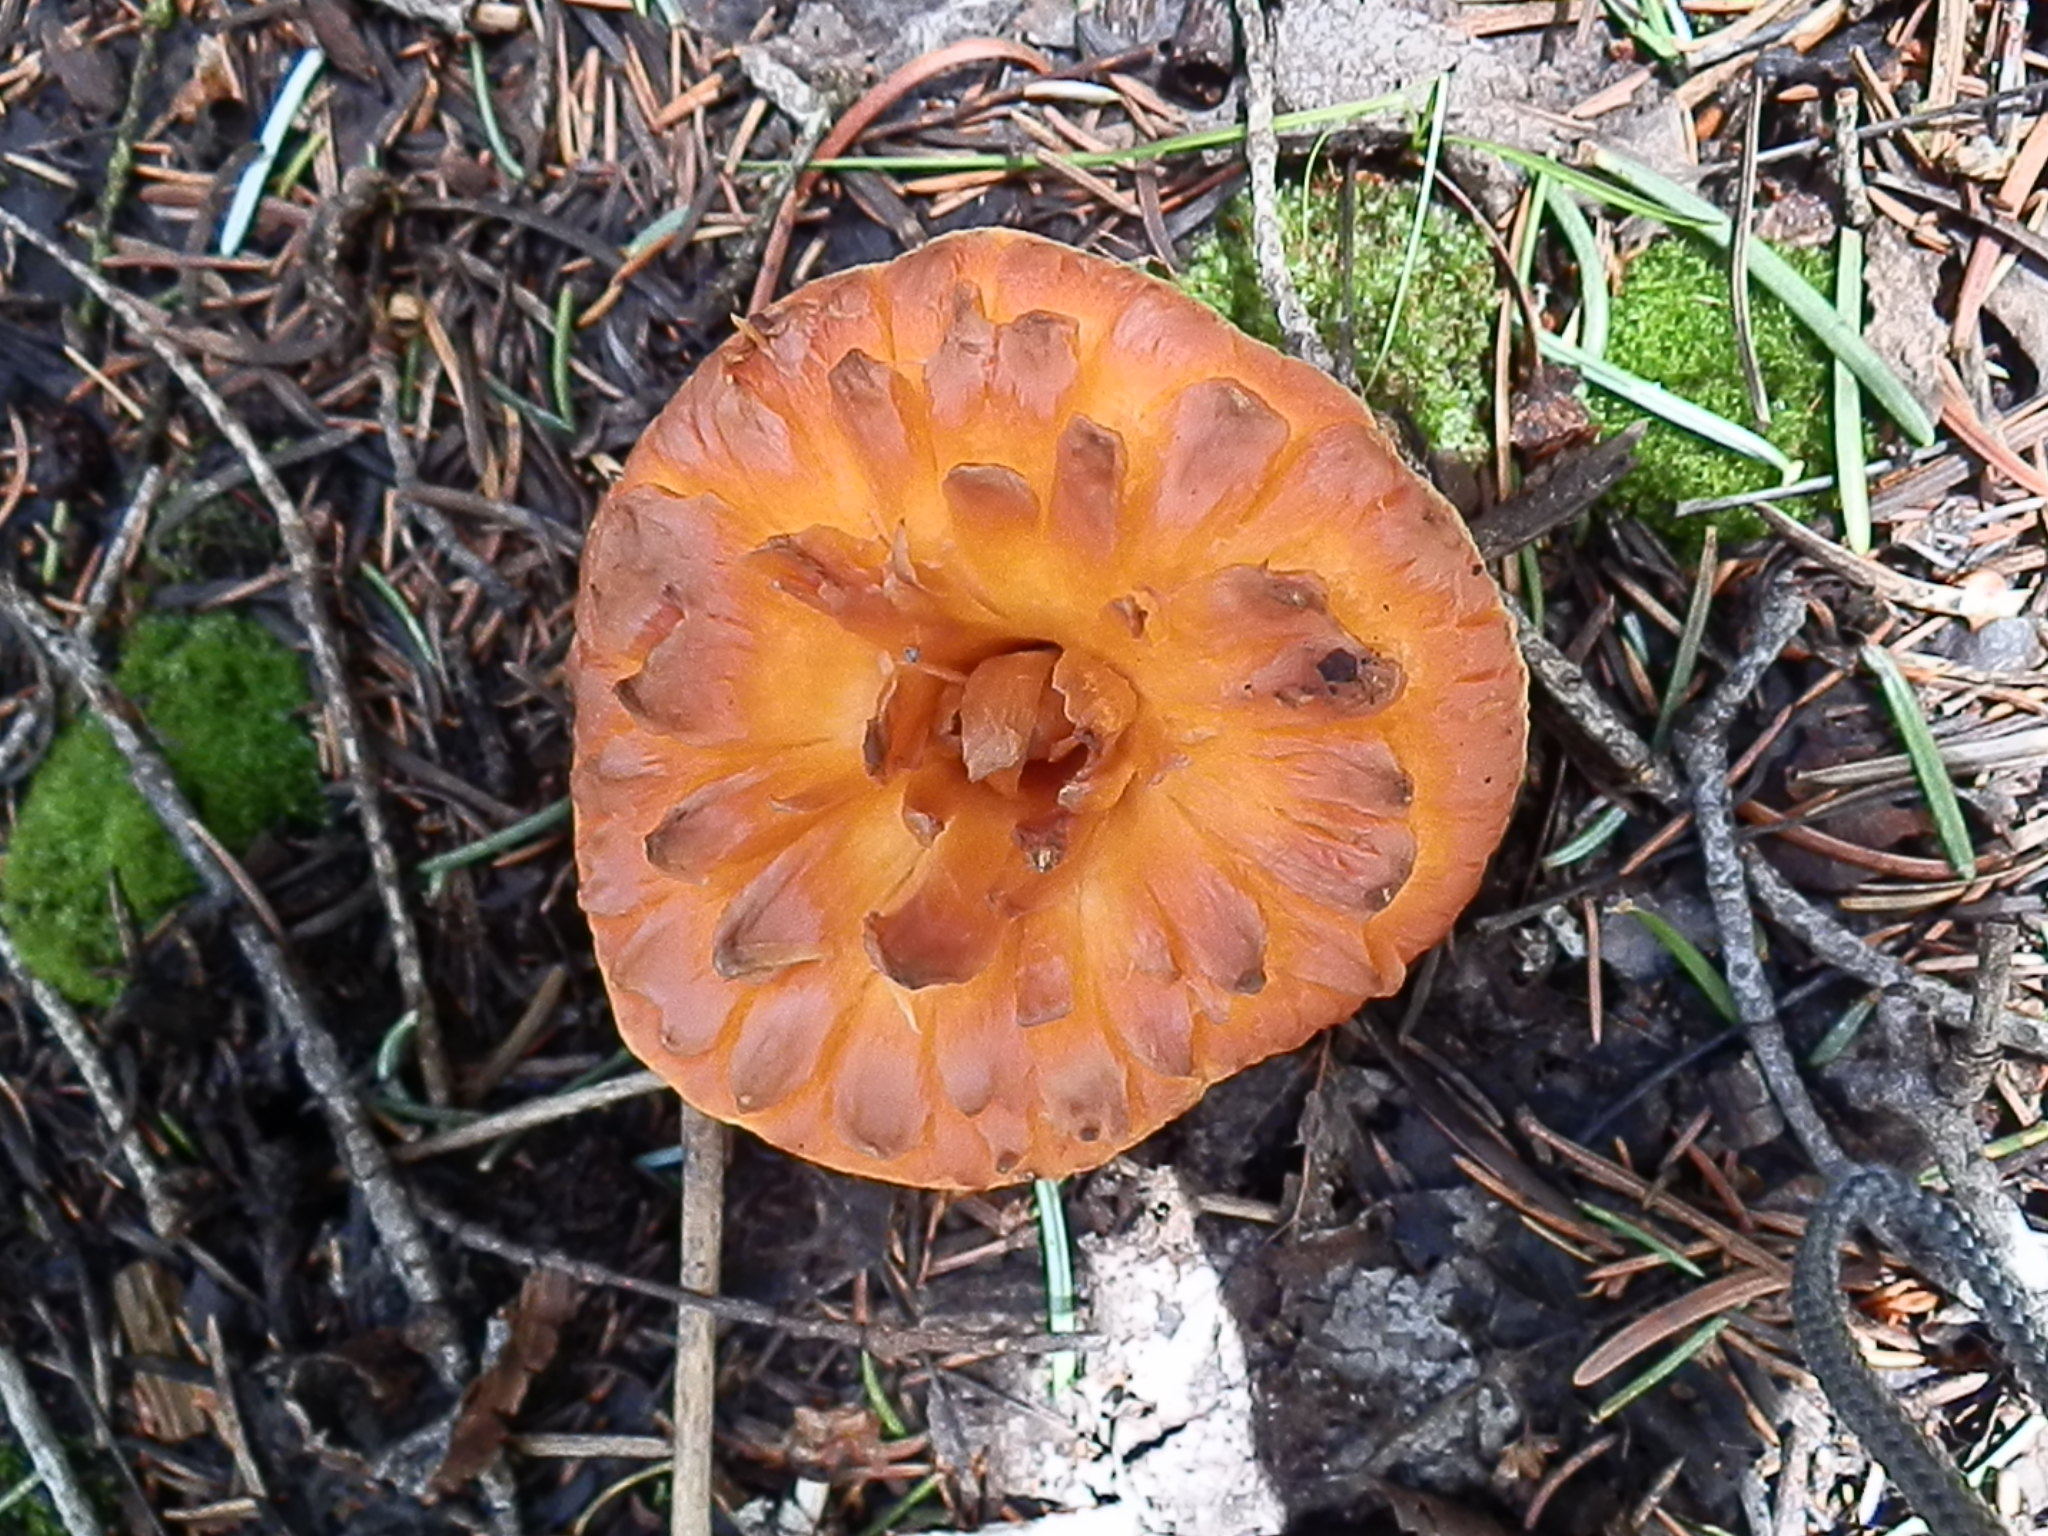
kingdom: Fungi
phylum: Basidiomycota
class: Agaricomycetes
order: Gomphales
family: Gomphaceae
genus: Turbinellus
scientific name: Turbinellus floccosus
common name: Scaly chanterelle
